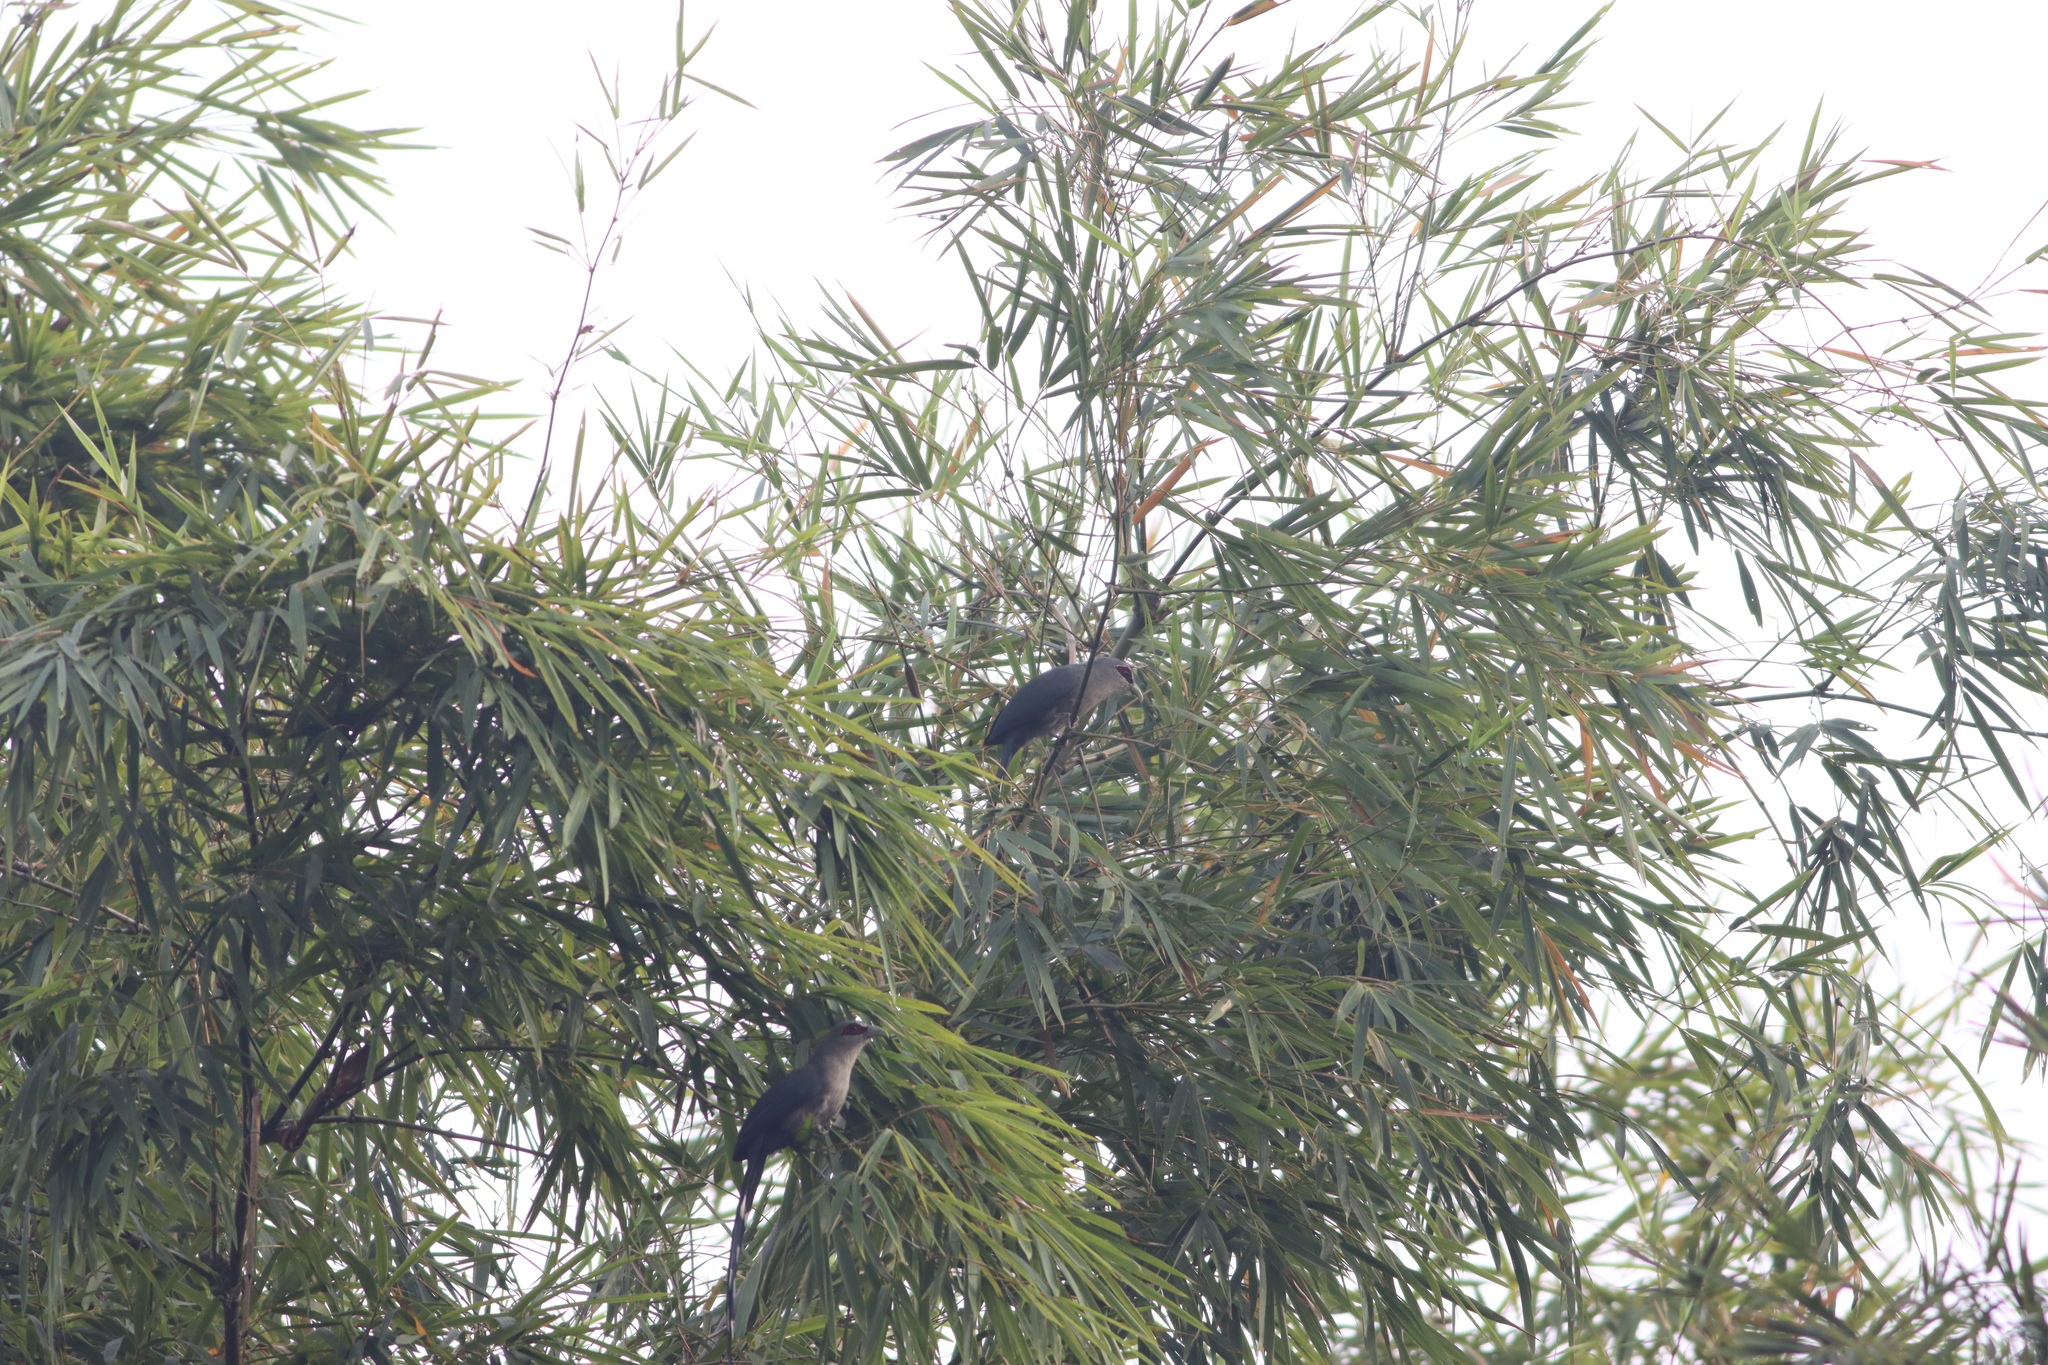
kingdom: Animalia
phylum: Chordata
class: Aves
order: Cuculiformes
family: Cuculidae
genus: Rhopodytes
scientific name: Rhopodytes tristis
